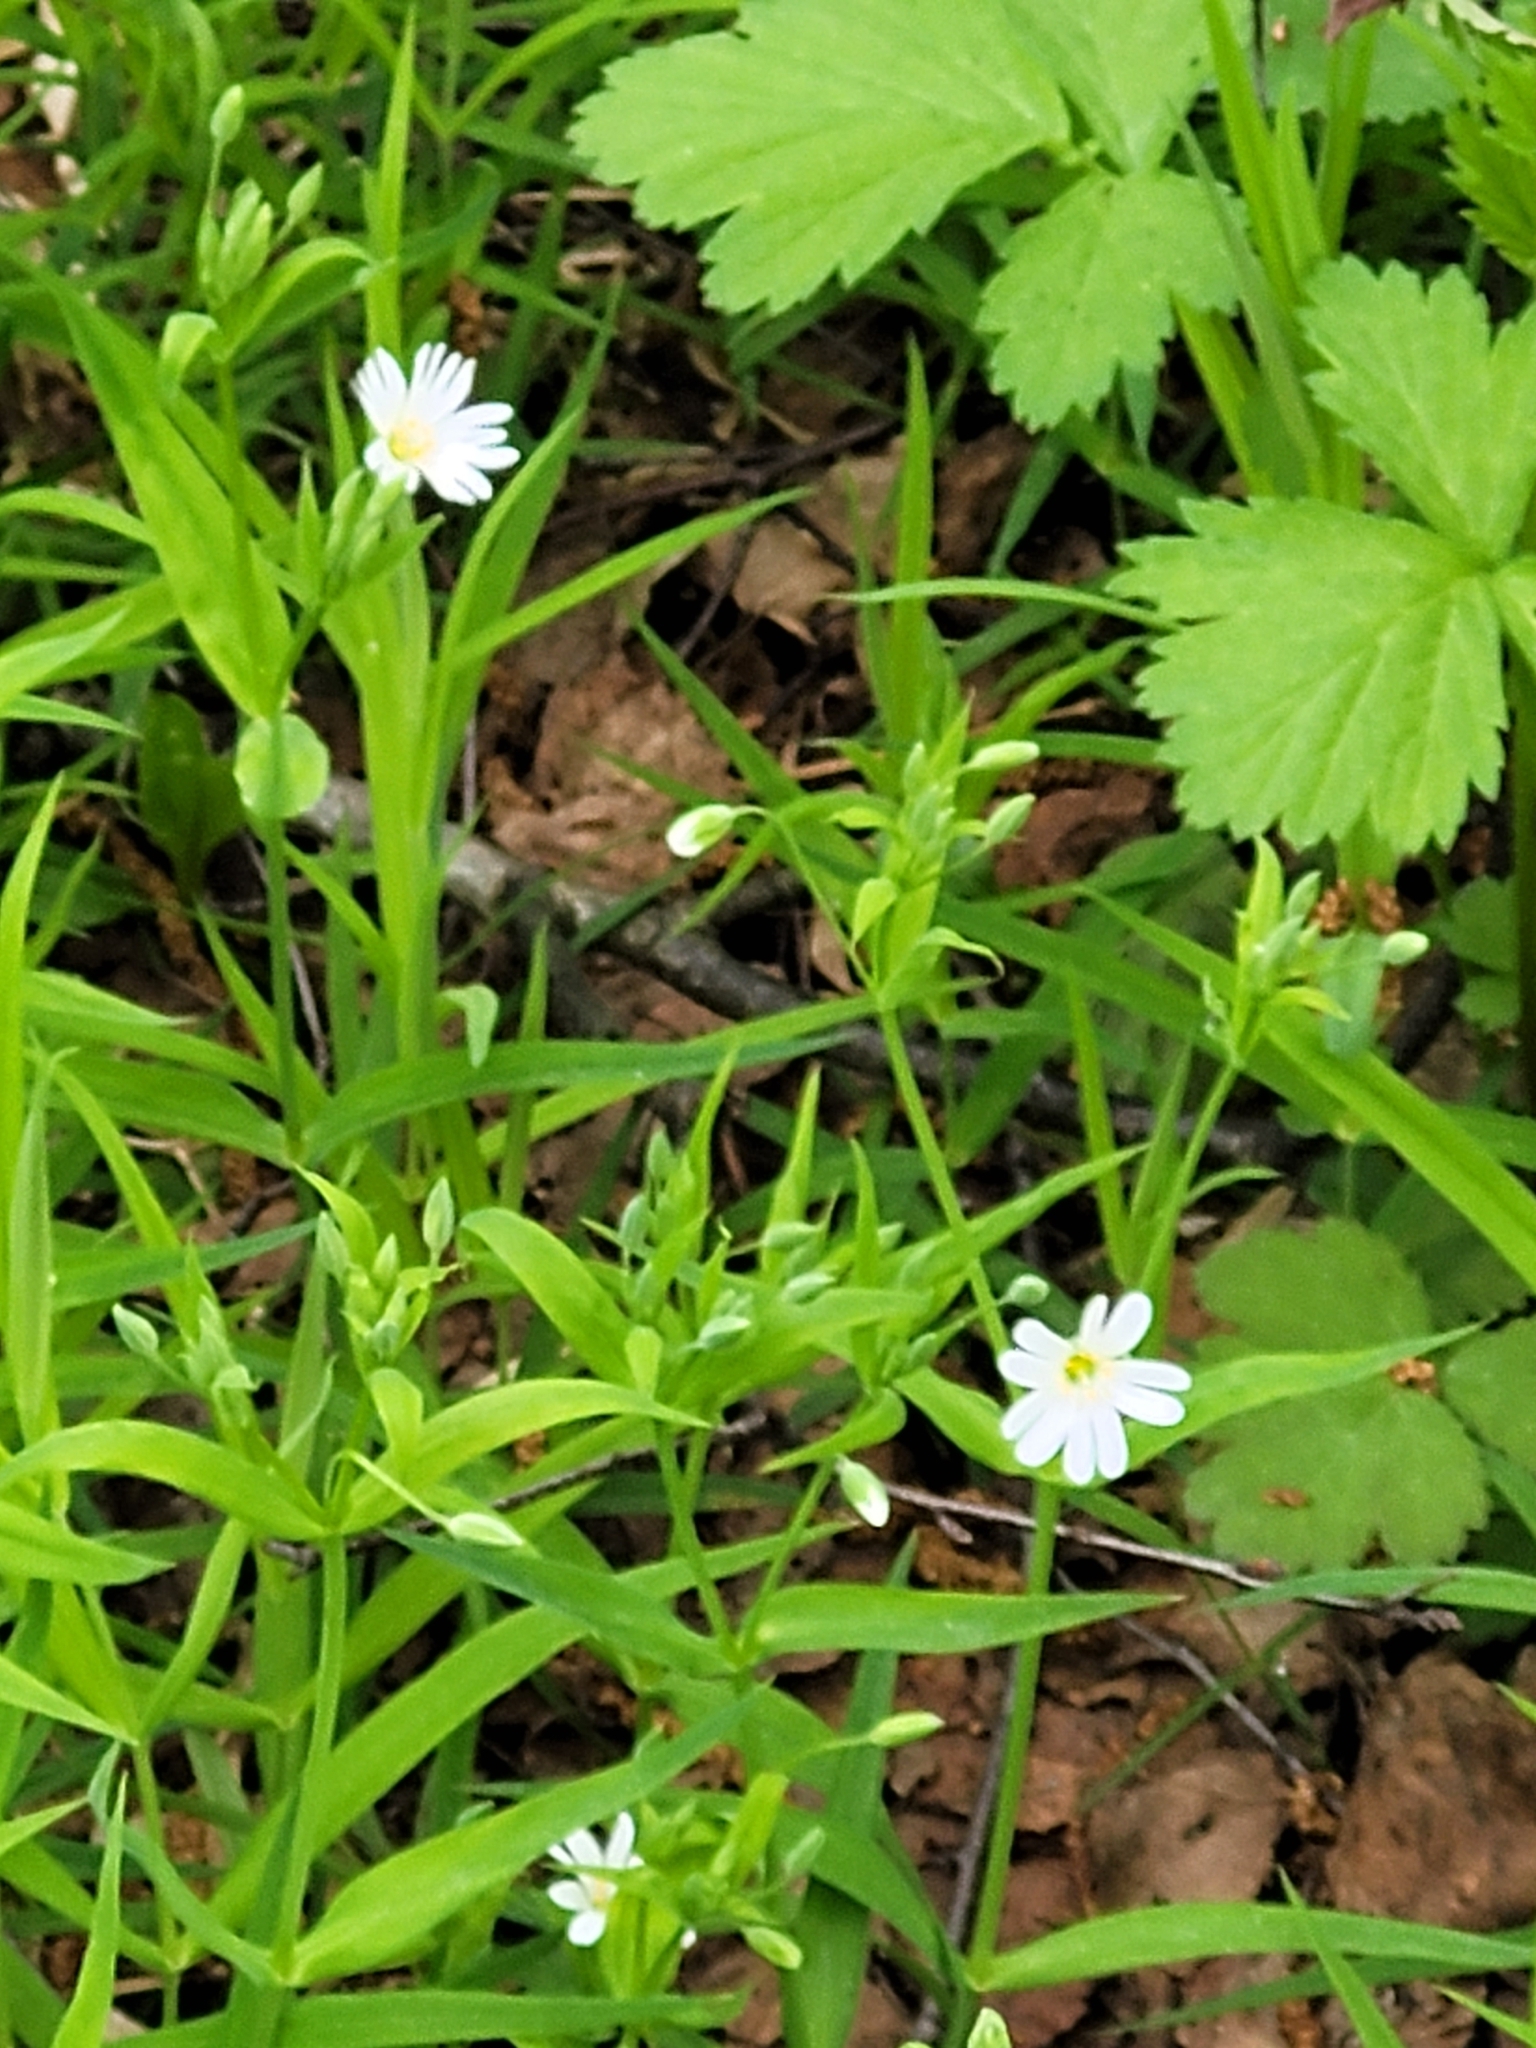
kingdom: Plantae
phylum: Tracheophyta
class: Magnoliopsida
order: Caryophyllales
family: Caryophyllaceae
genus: Rabelera
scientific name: Rabelera holostea
